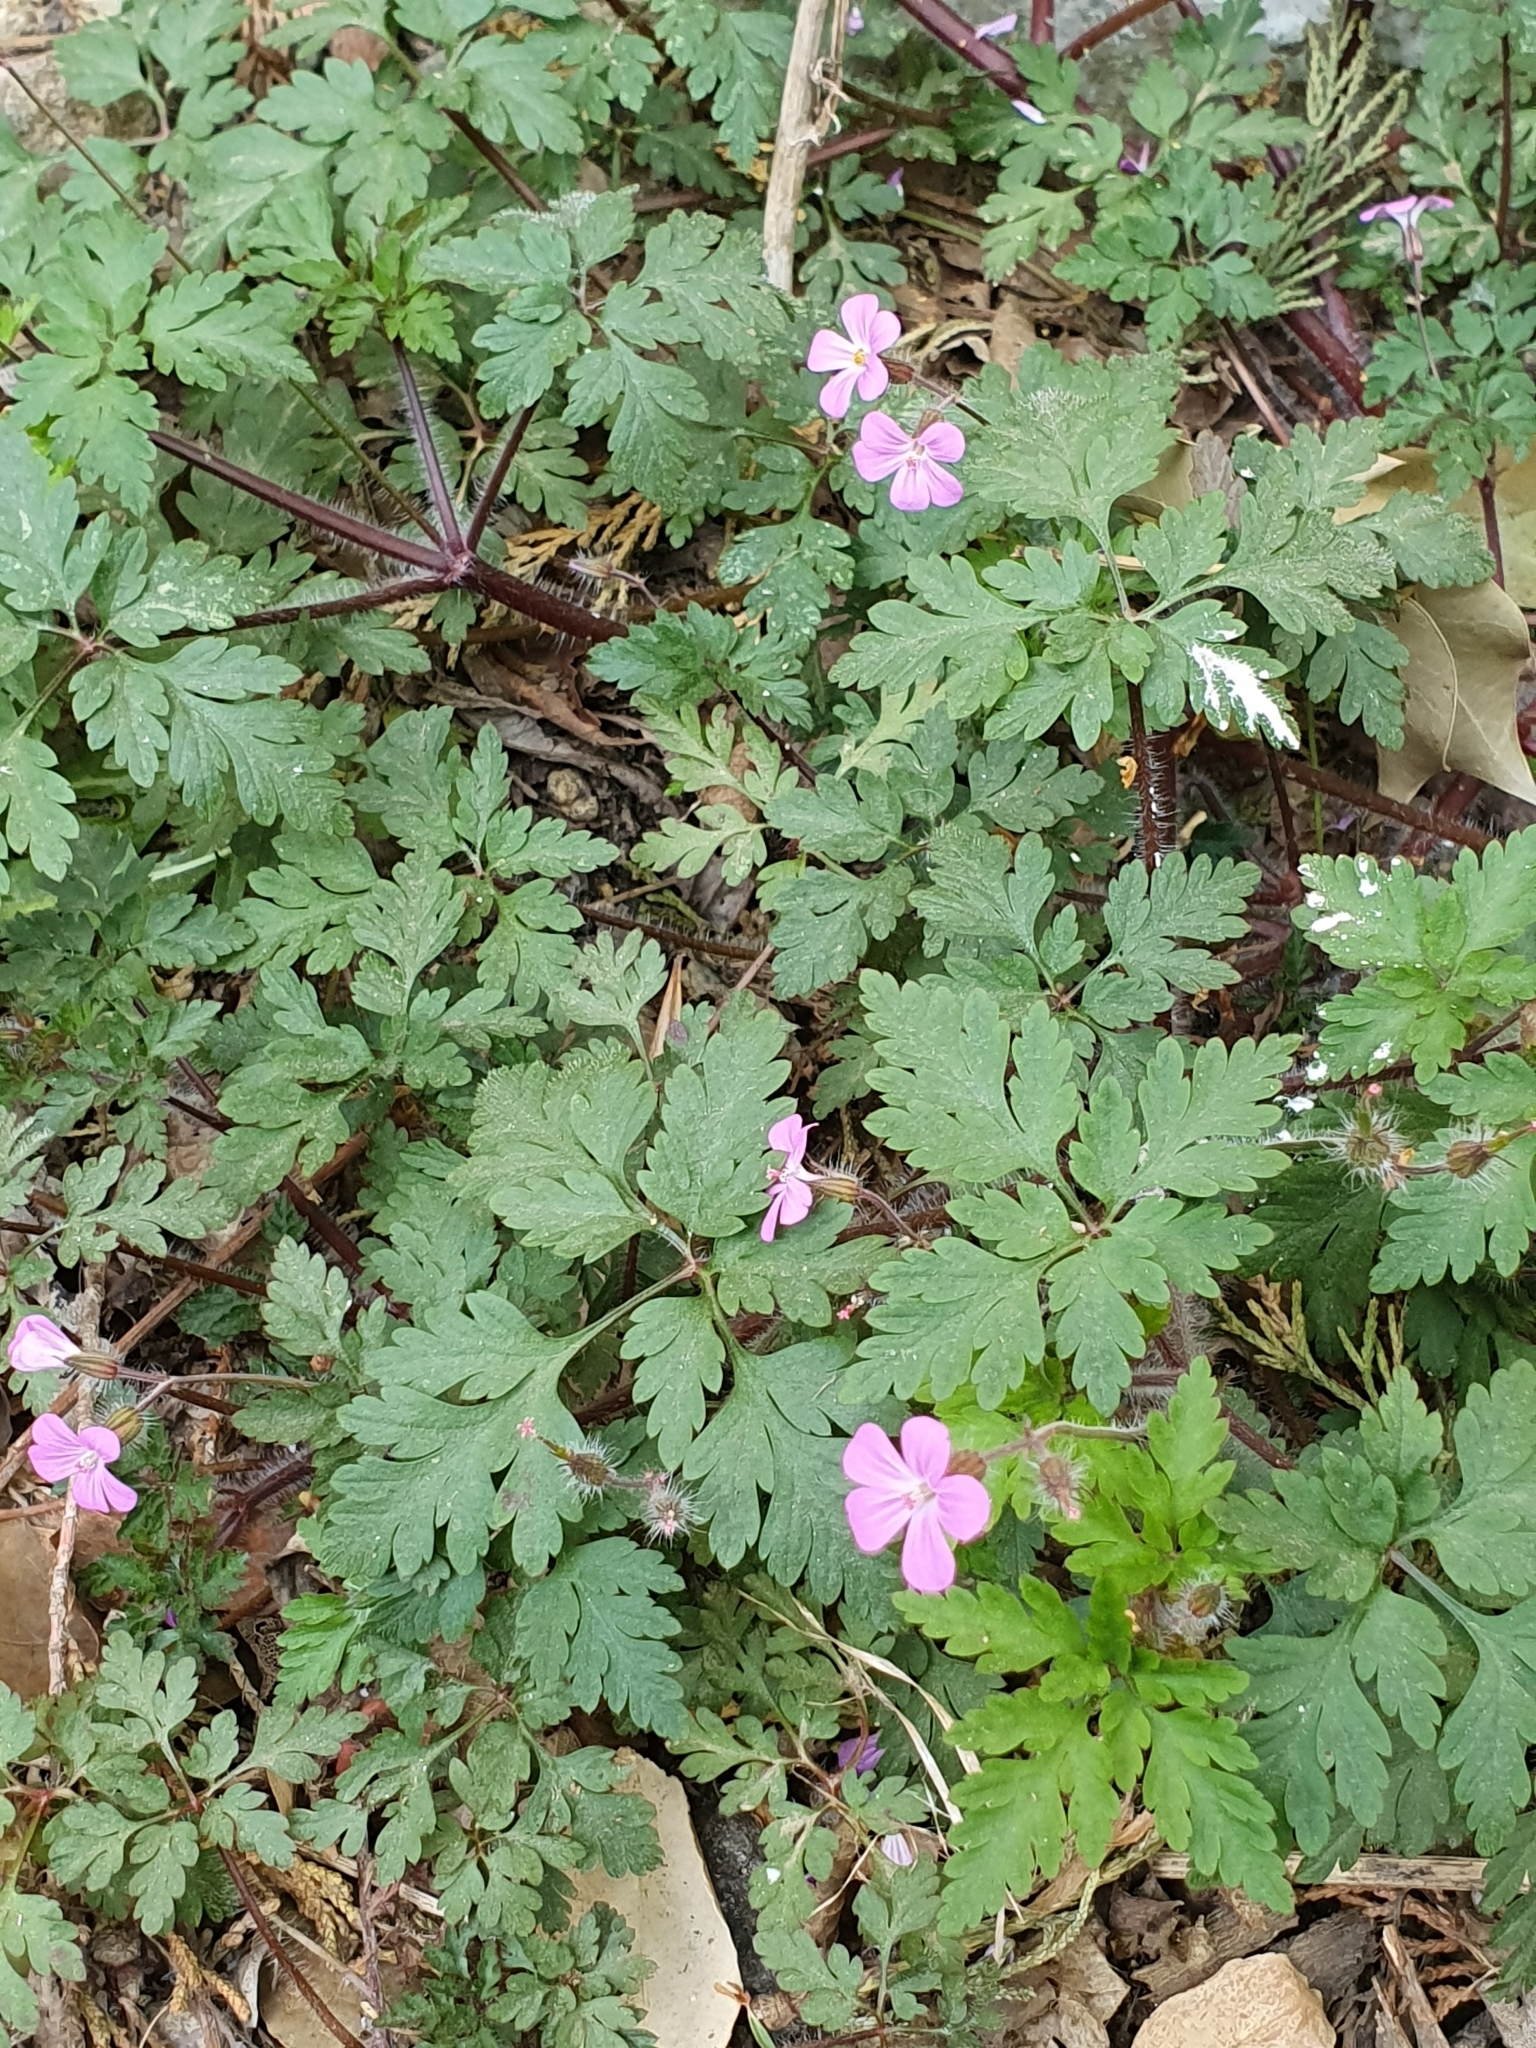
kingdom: Plantae
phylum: Tracheophyta
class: Magnoliopsida
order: Geraniales
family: Geraniaceae
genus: Geranium
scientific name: Geranium robertianum
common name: Herb-robert
